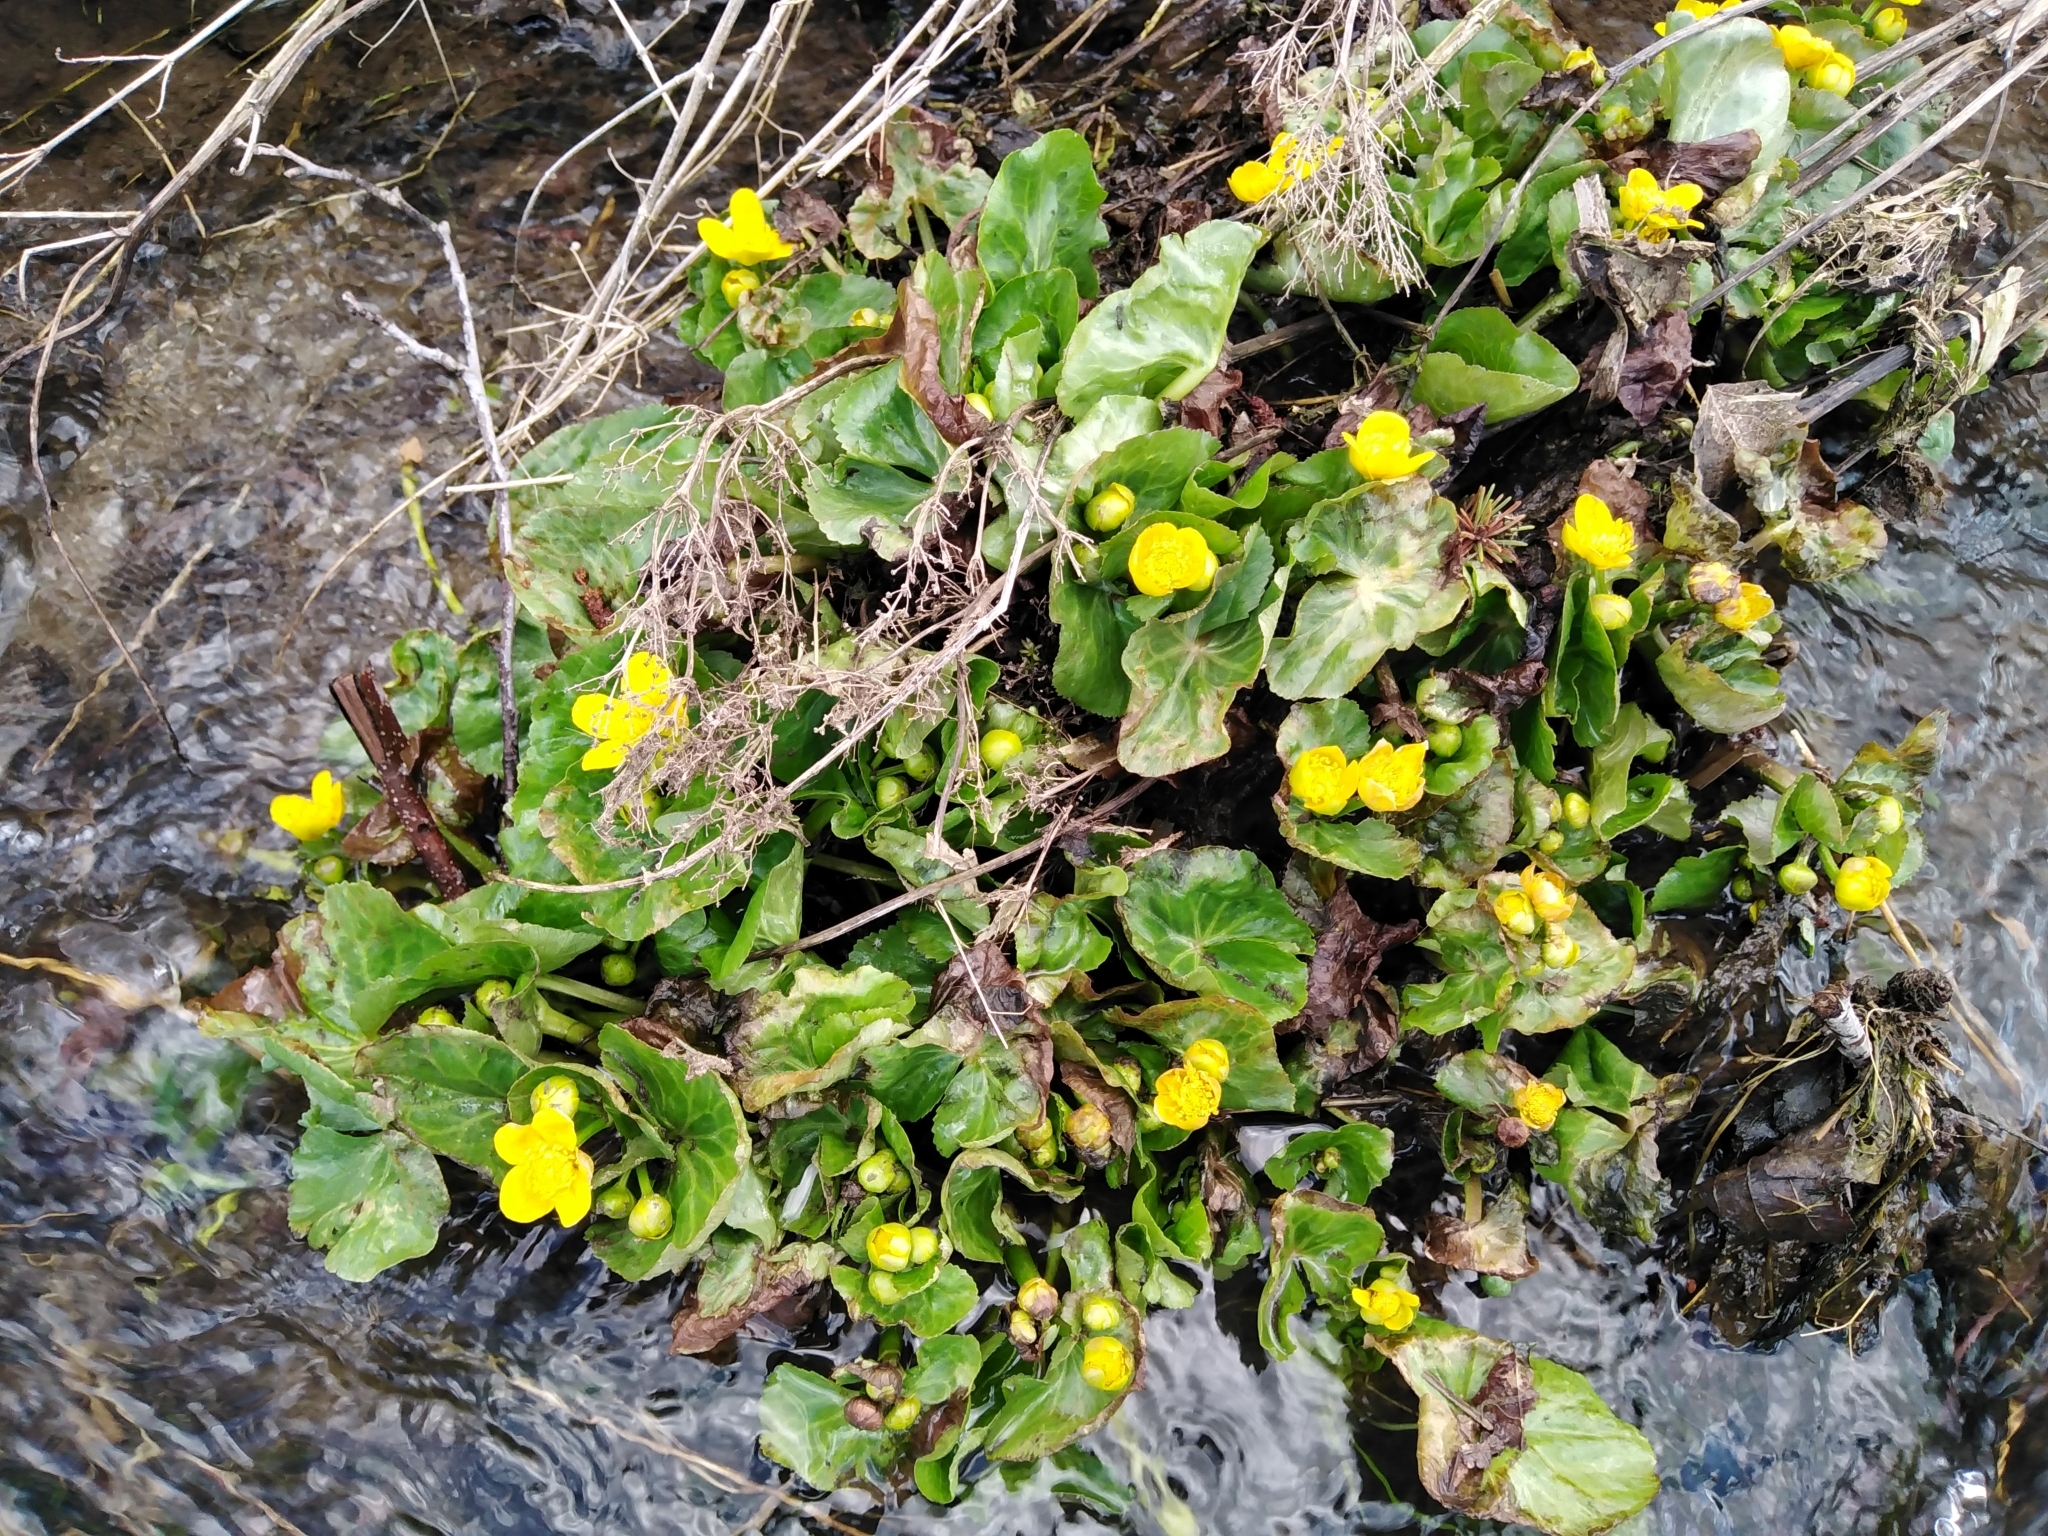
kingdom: Plantae
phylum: Tracheophyta
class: Magnoliopsida
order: Ranunculales
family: Ranunculaceae
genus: Caltha
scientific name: Caltha palustris
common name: Marsh marigold
